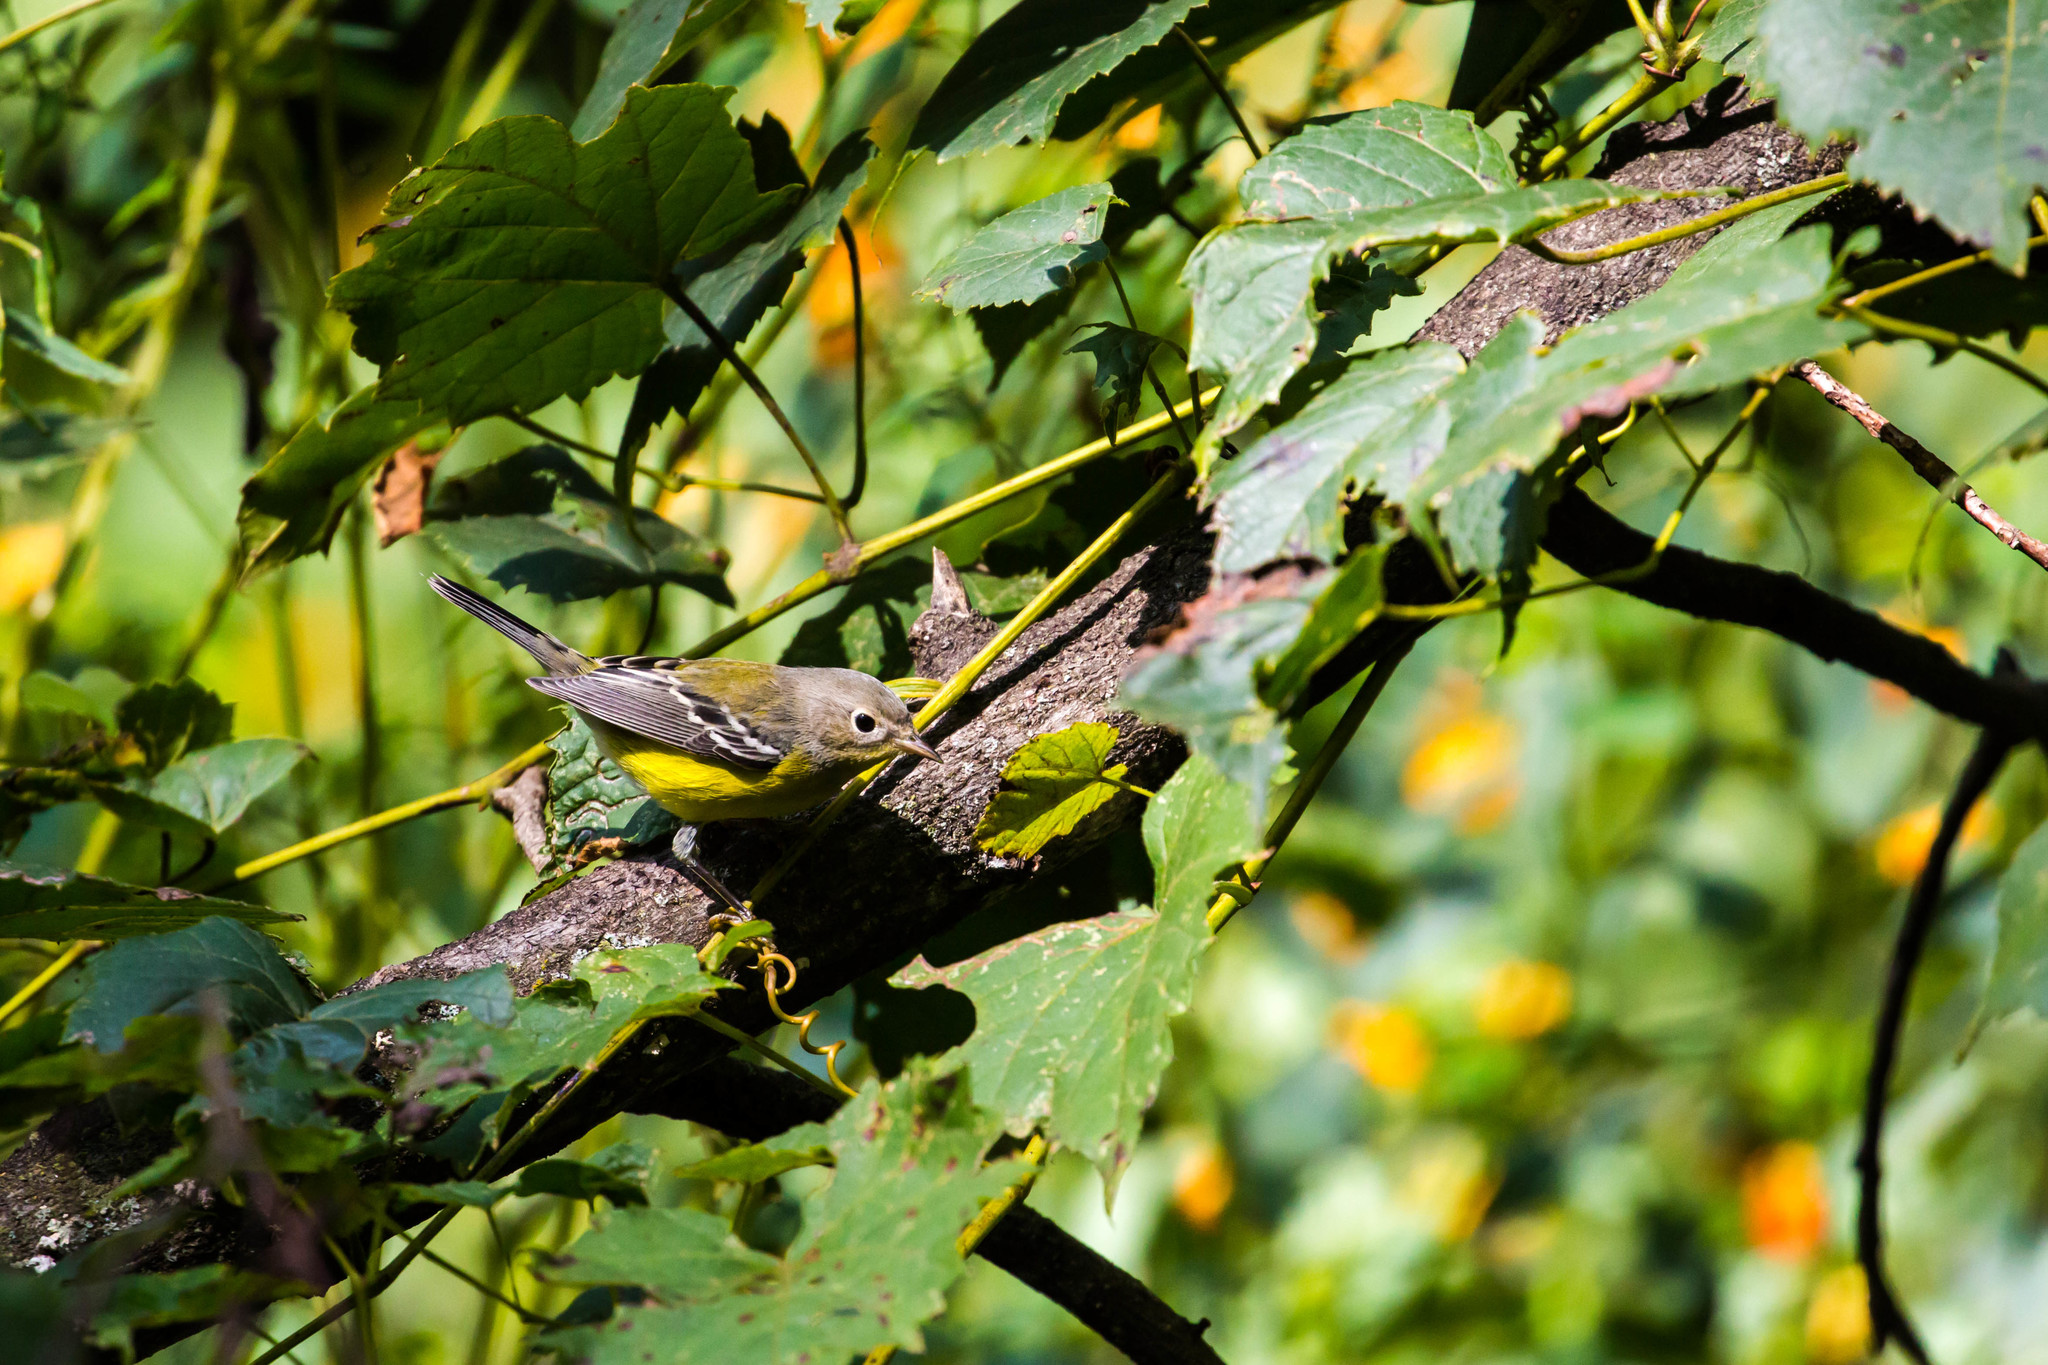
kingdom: Animalia
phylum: Chordata
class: Aves
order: Passeriformes
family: Parulidae
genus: Setophaga
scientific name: Setophaga magnolia
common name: Magnolia warbler
